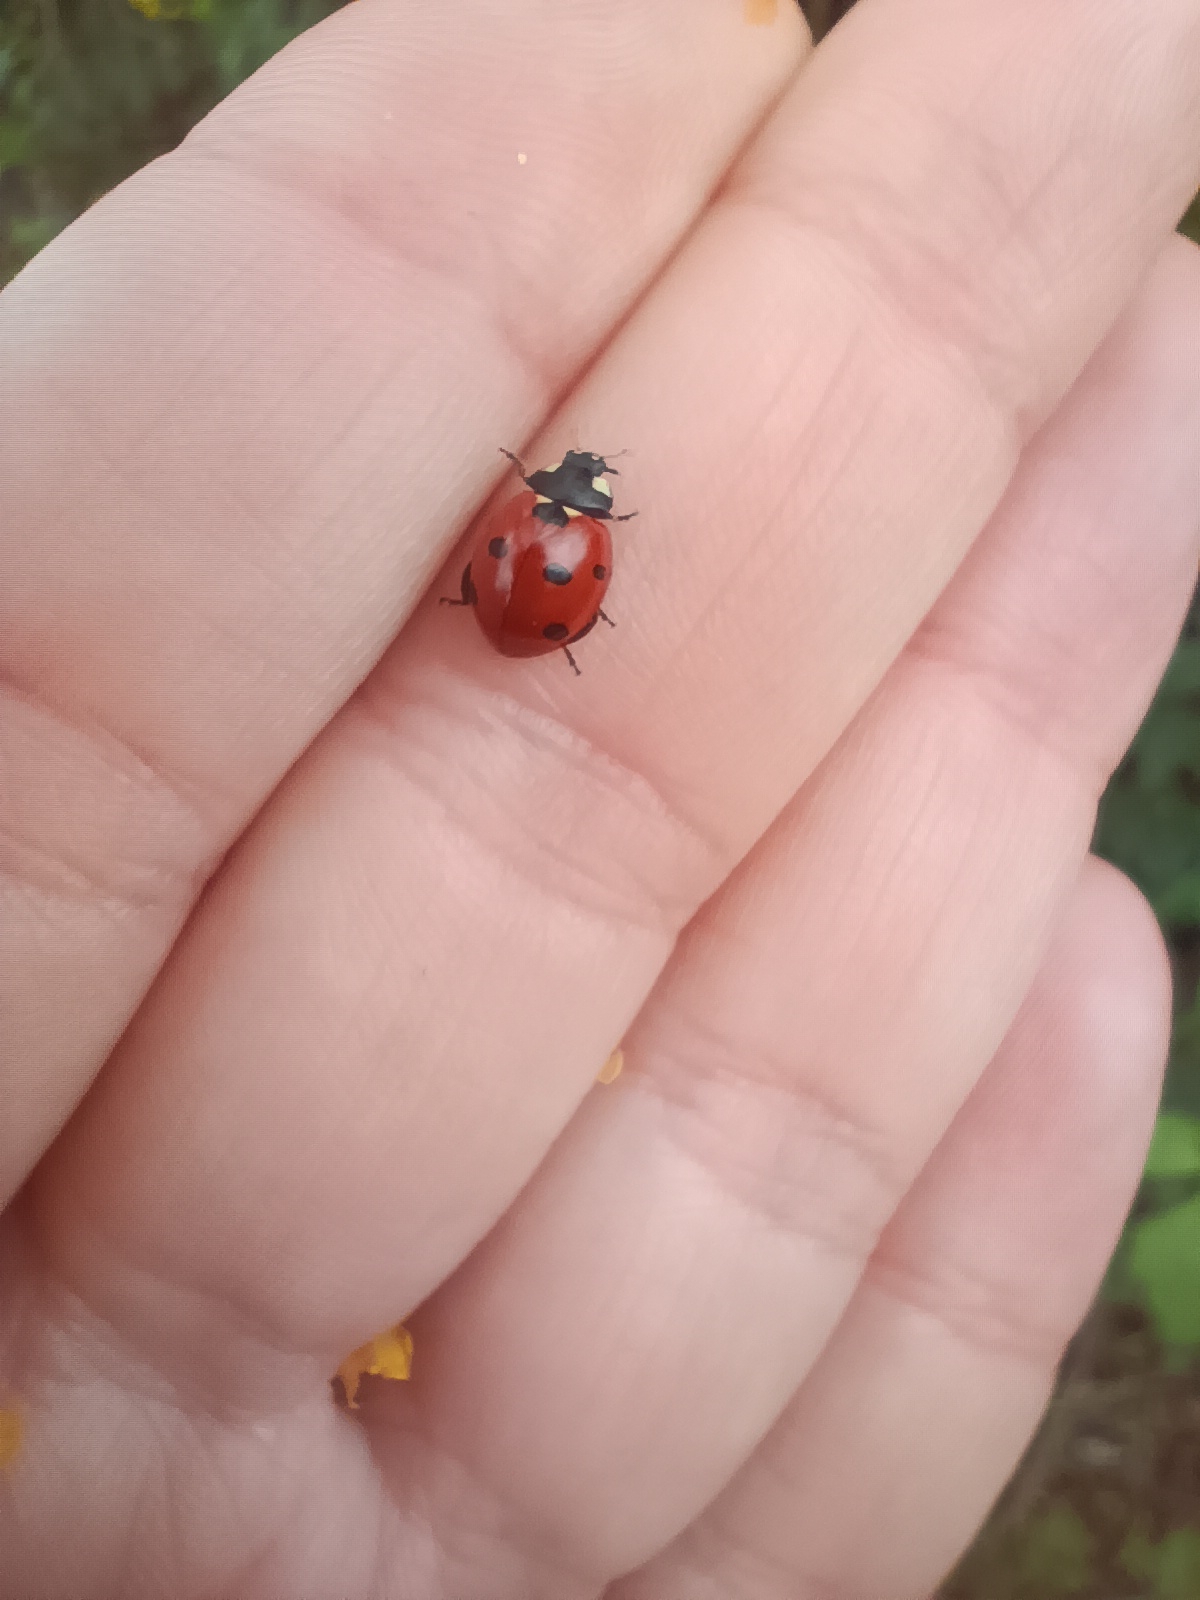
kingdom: Animalia
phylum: Arthropoda
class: Insecta
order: Coleoptera
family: Coccinellidae
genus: Coccinella
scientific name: Coccinella septempunctata
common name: Sevenspotted lady beetle
